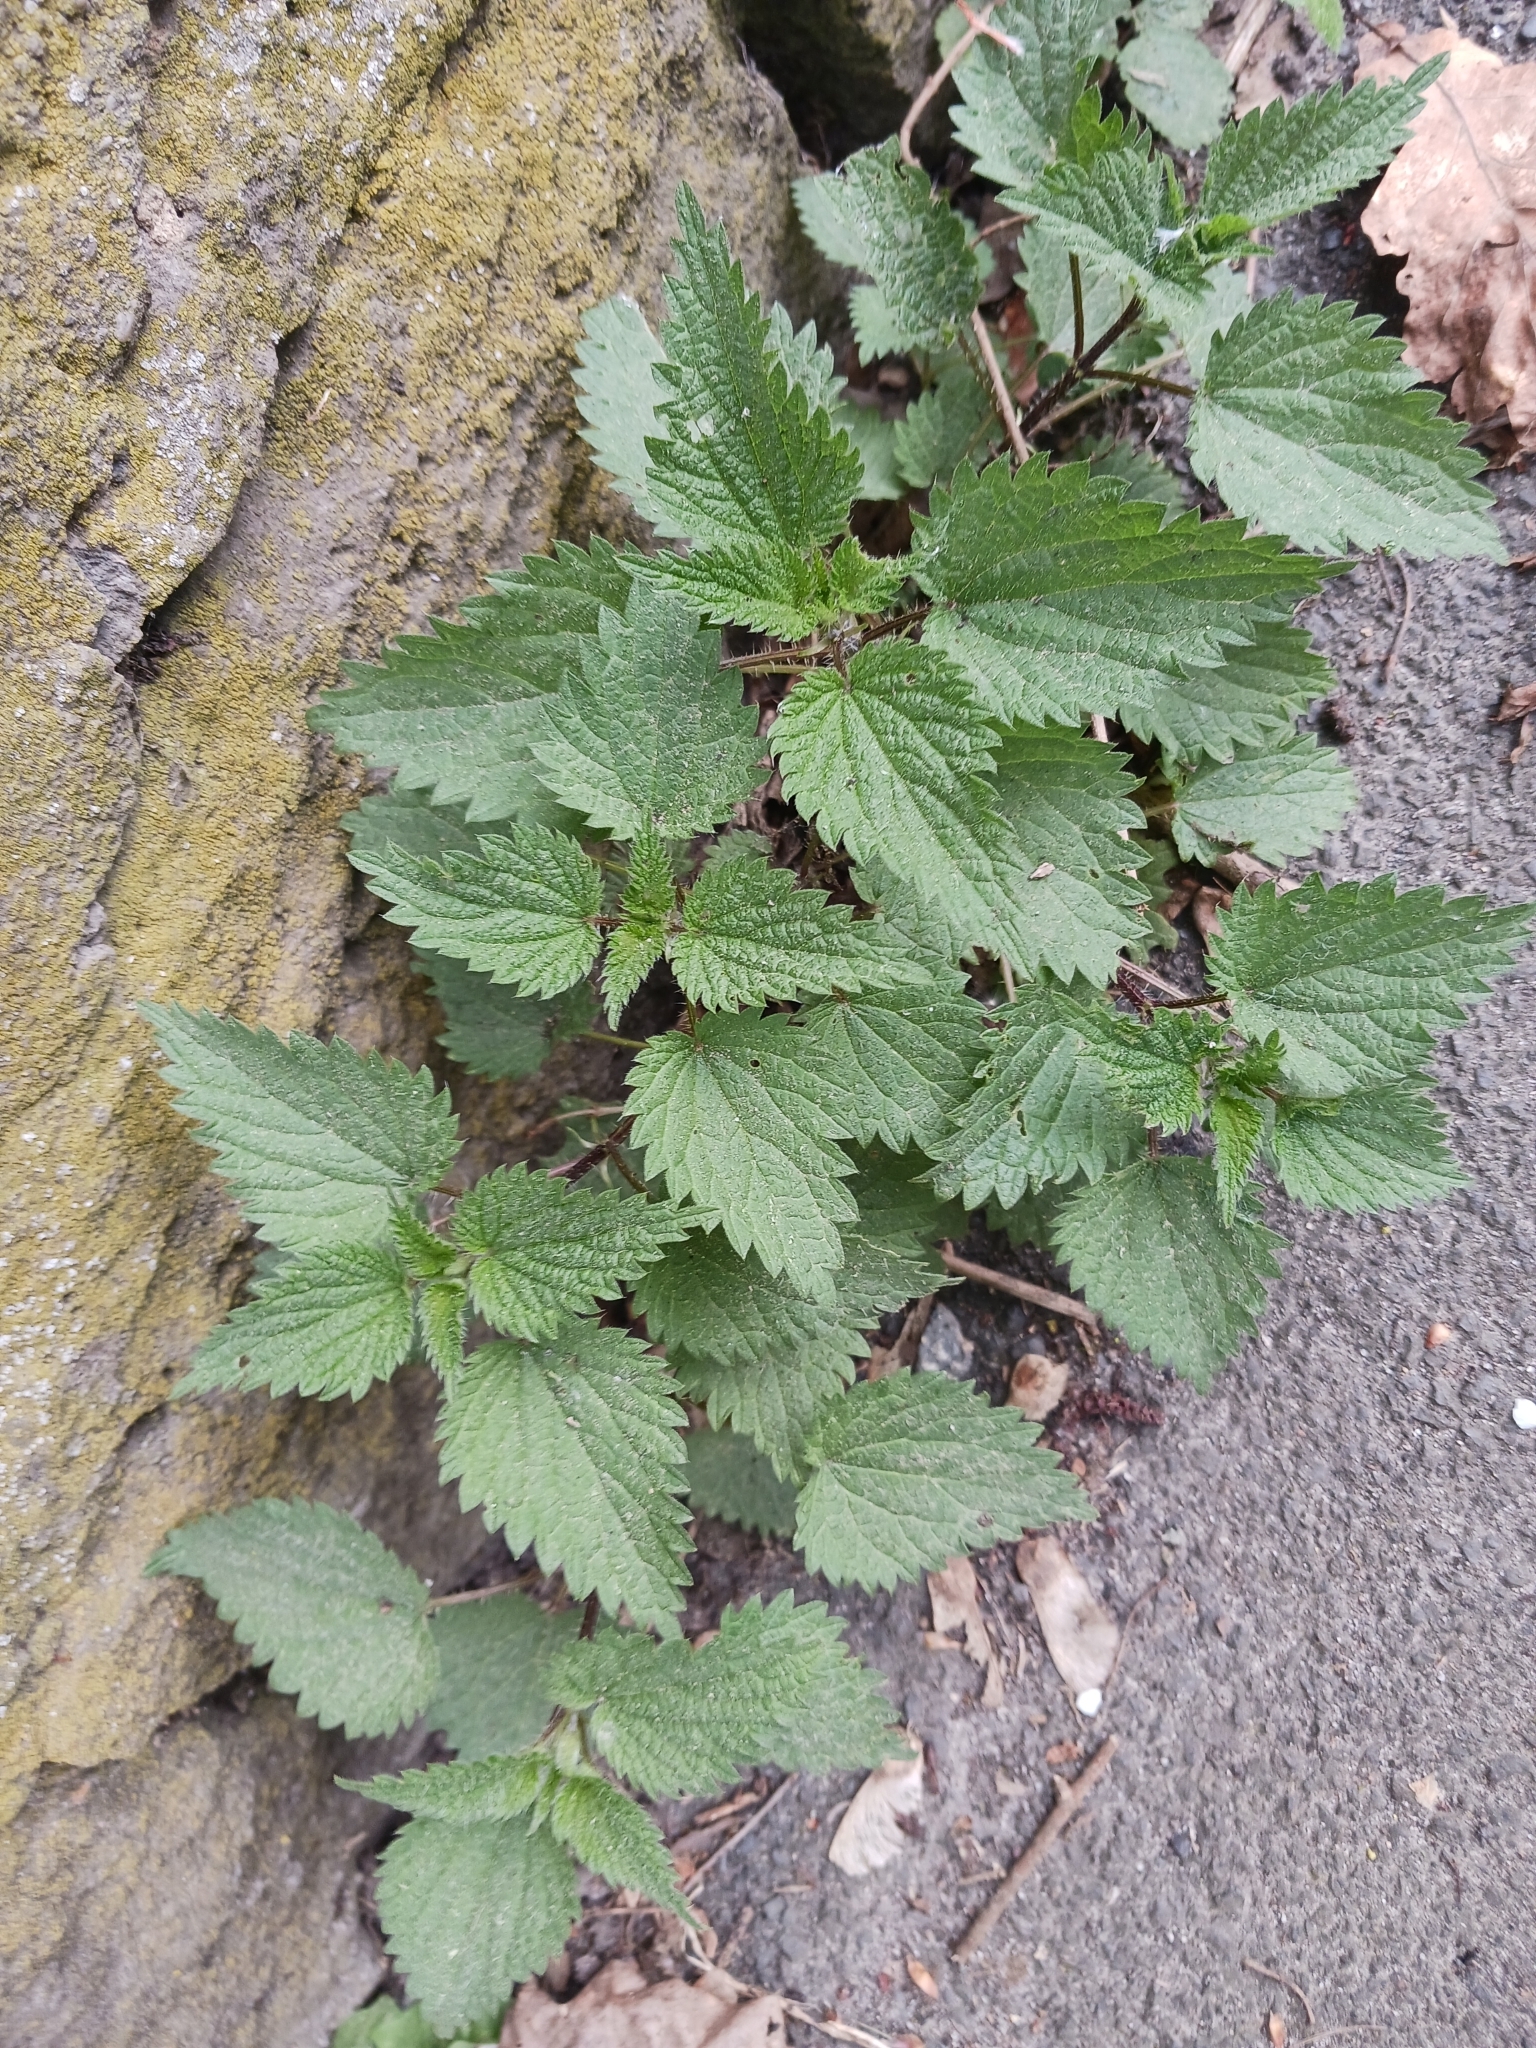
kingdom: Plantae
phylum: Tracheophyta
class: Magnoliopsida
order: Rosales
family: Urticaceae
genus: Urtica
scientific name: Urtica dioica
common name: Common nettle
